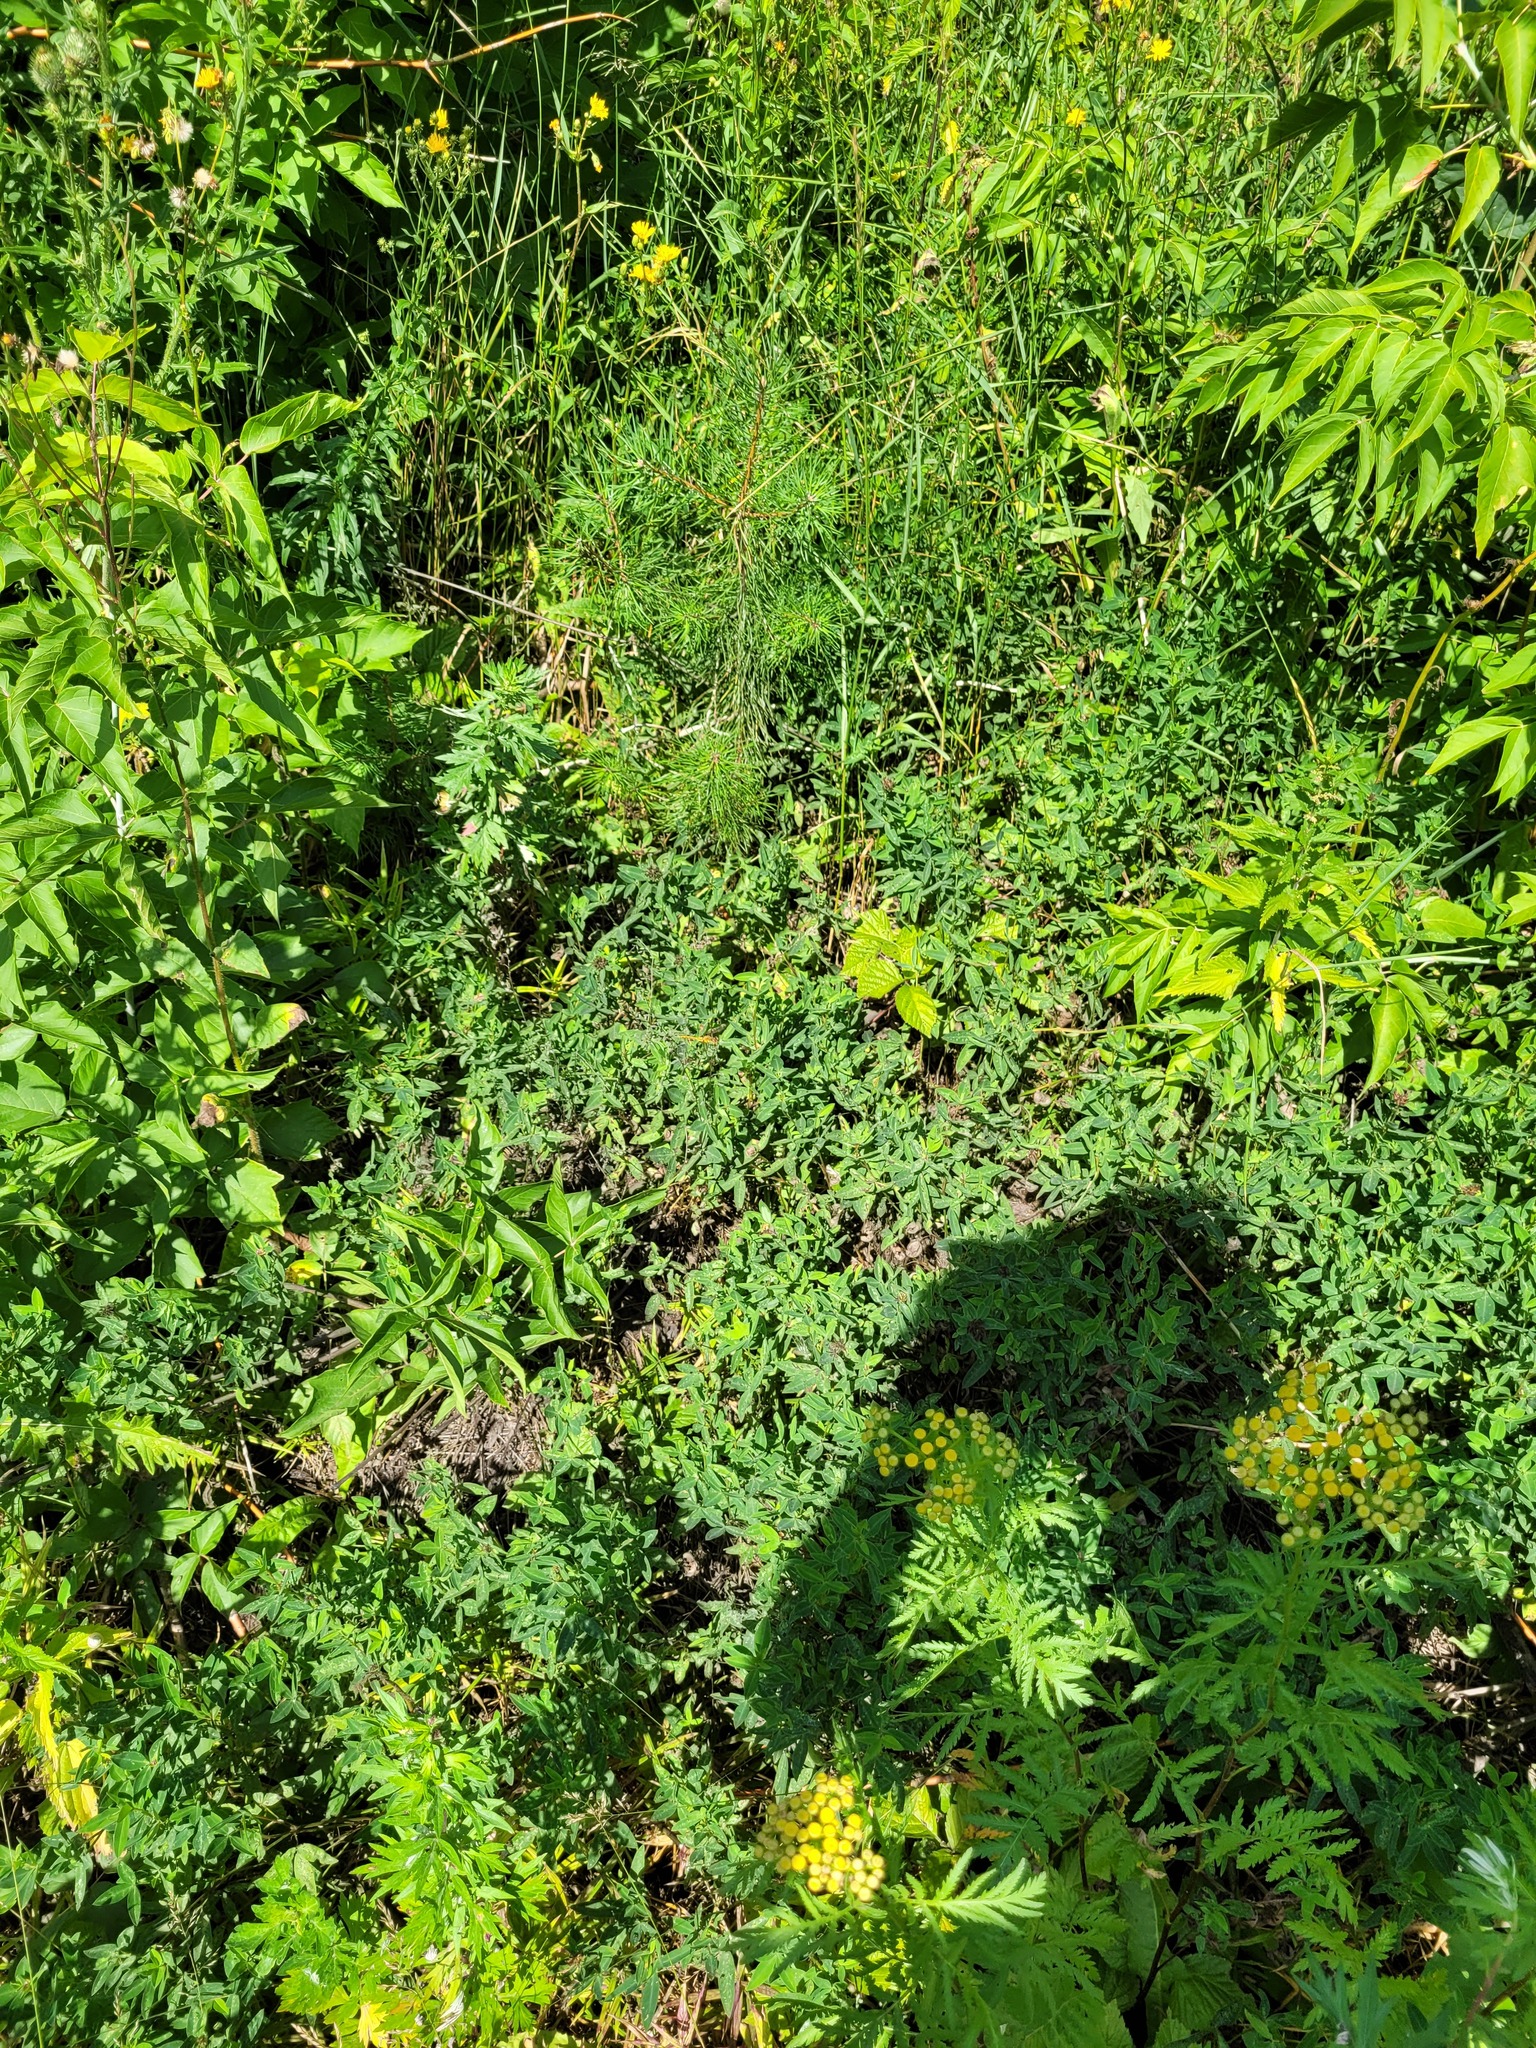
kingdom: Plantae
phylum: Tracheophyta
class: Magnoliopsida
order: Fabales
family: Fabaceae
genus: Trifolium
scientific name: Trifolium medium
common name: Zigzag clover
